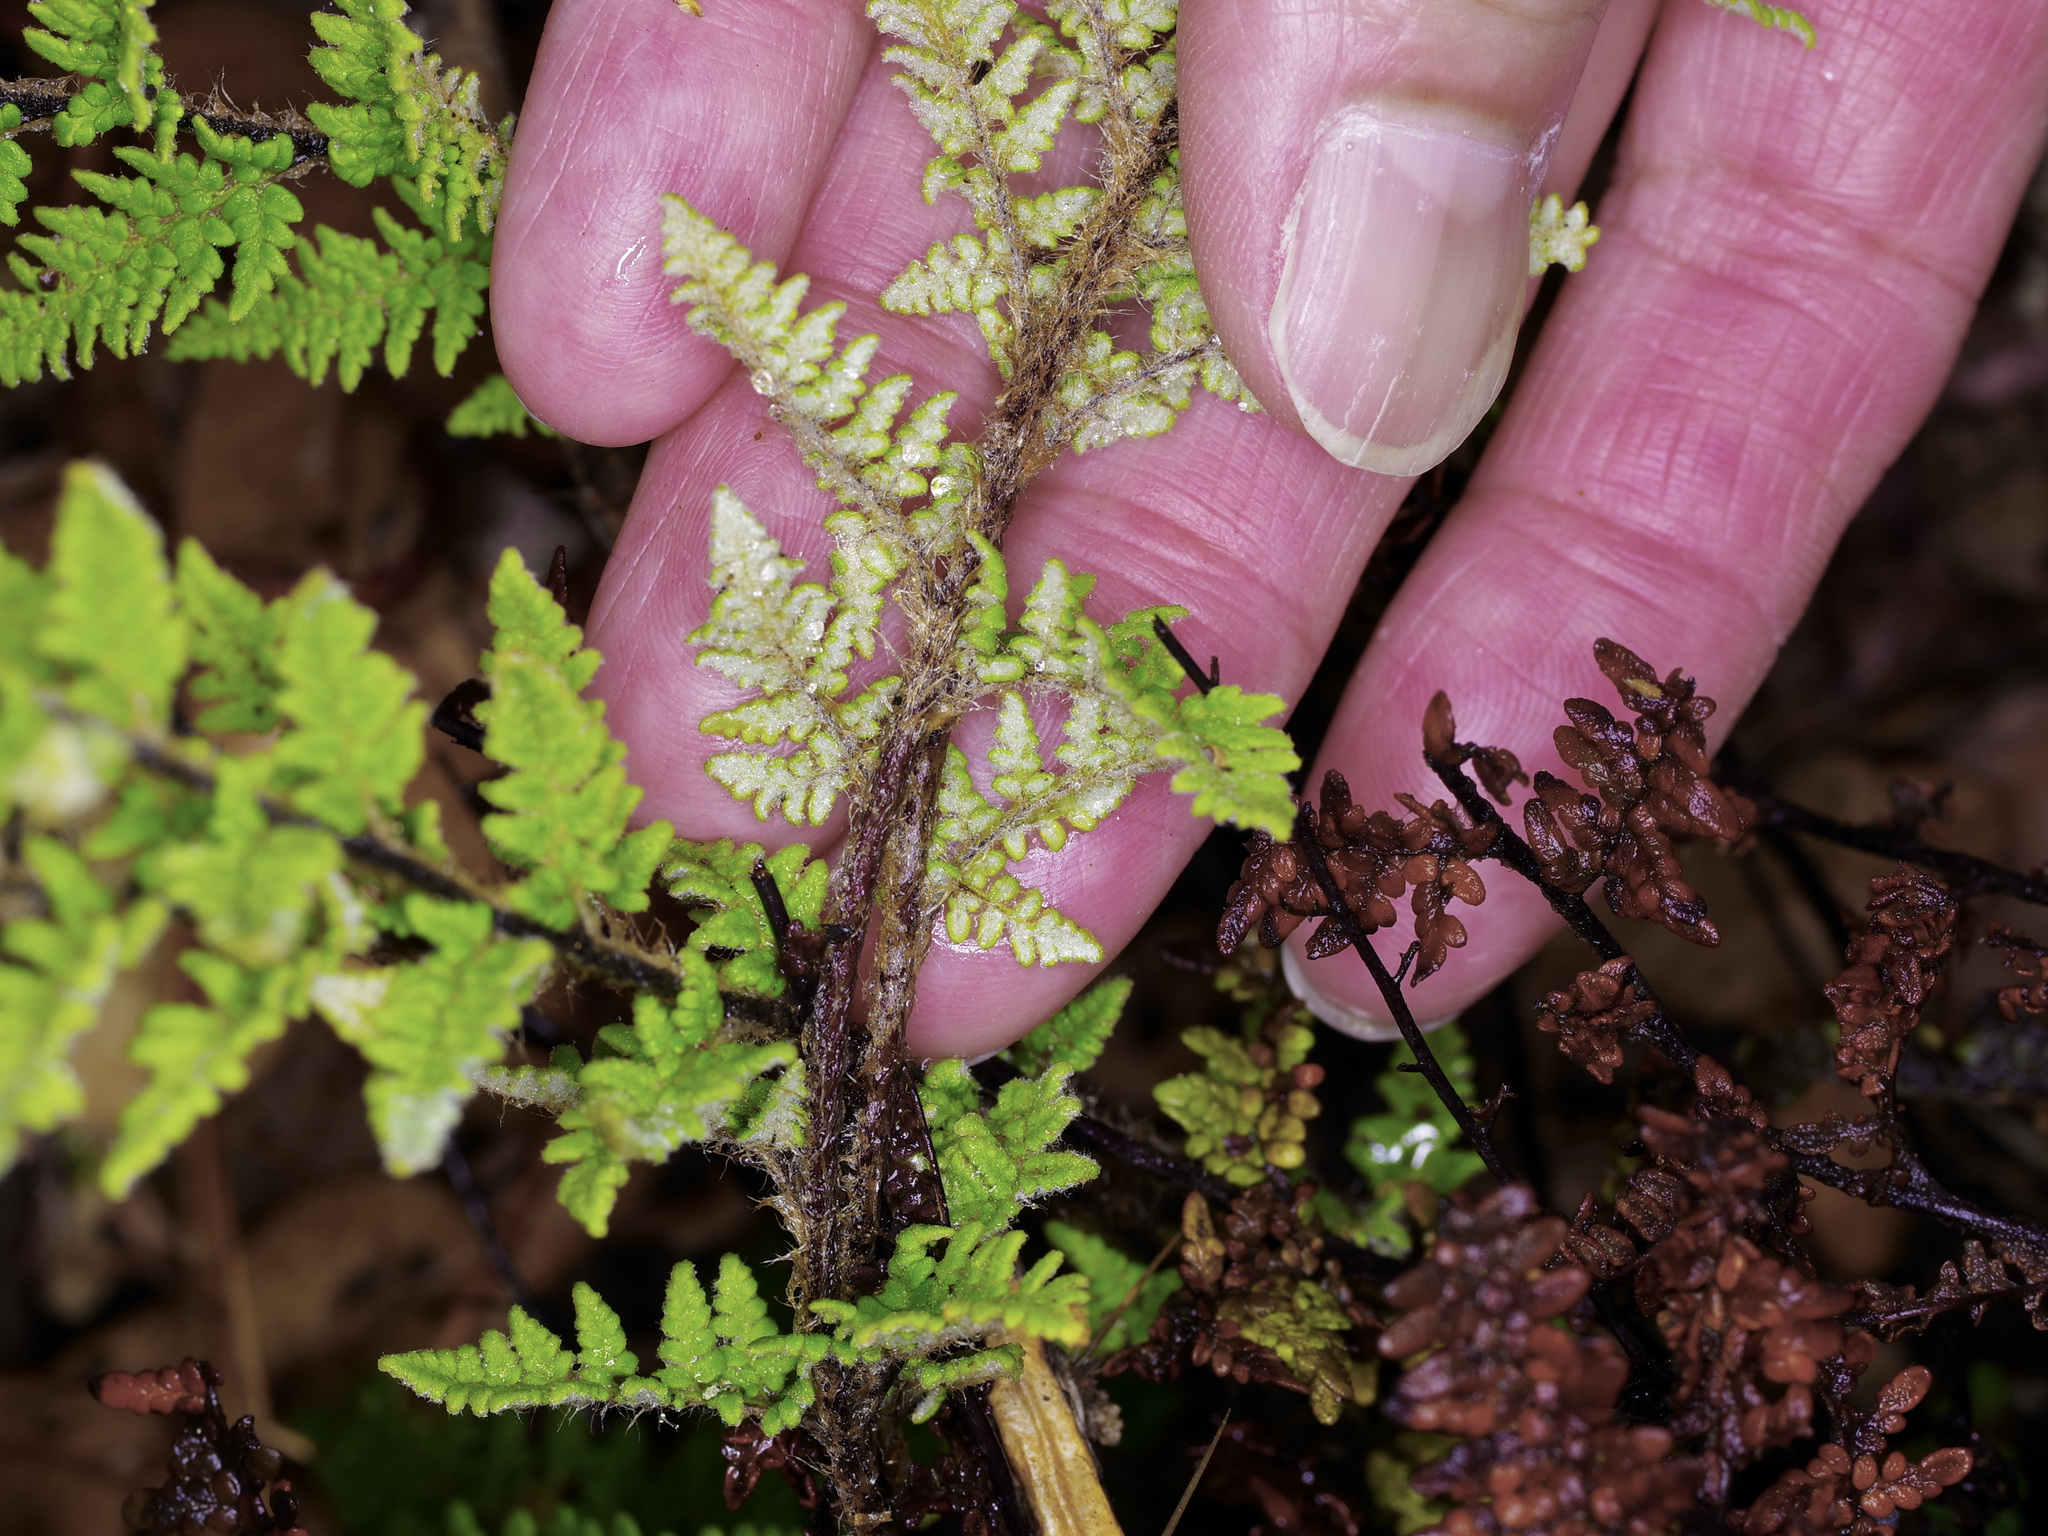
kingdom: Plantae
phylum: Tracheophyta
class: Polypodiopsida
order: Polypodiales
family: Pteridaceae
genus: Myriopteris
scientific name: Myriopteris tomentosa
